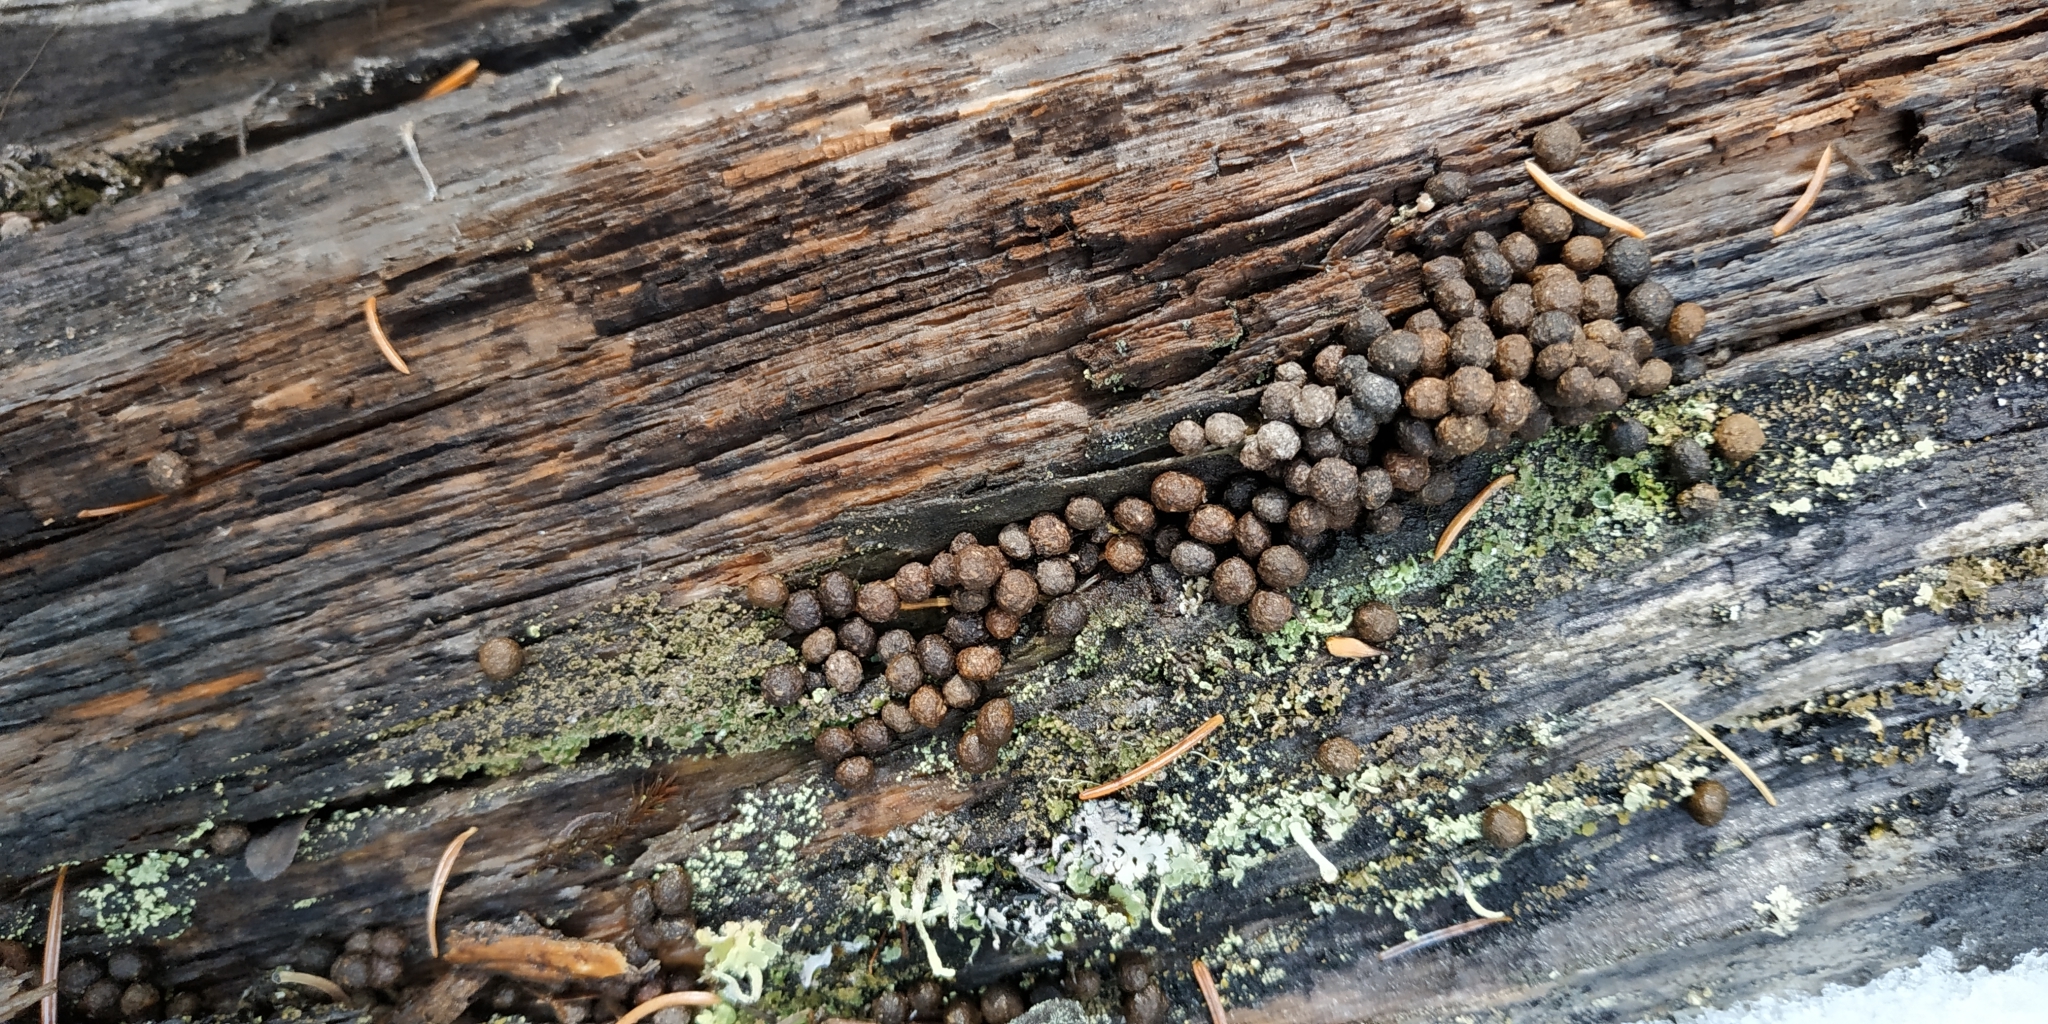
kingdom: Animalia
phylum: Chordata
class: Mammalia
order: Lagomorpha
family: Leporidae
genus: Lepus
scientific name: Lepus timidus
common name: Mountain hare
